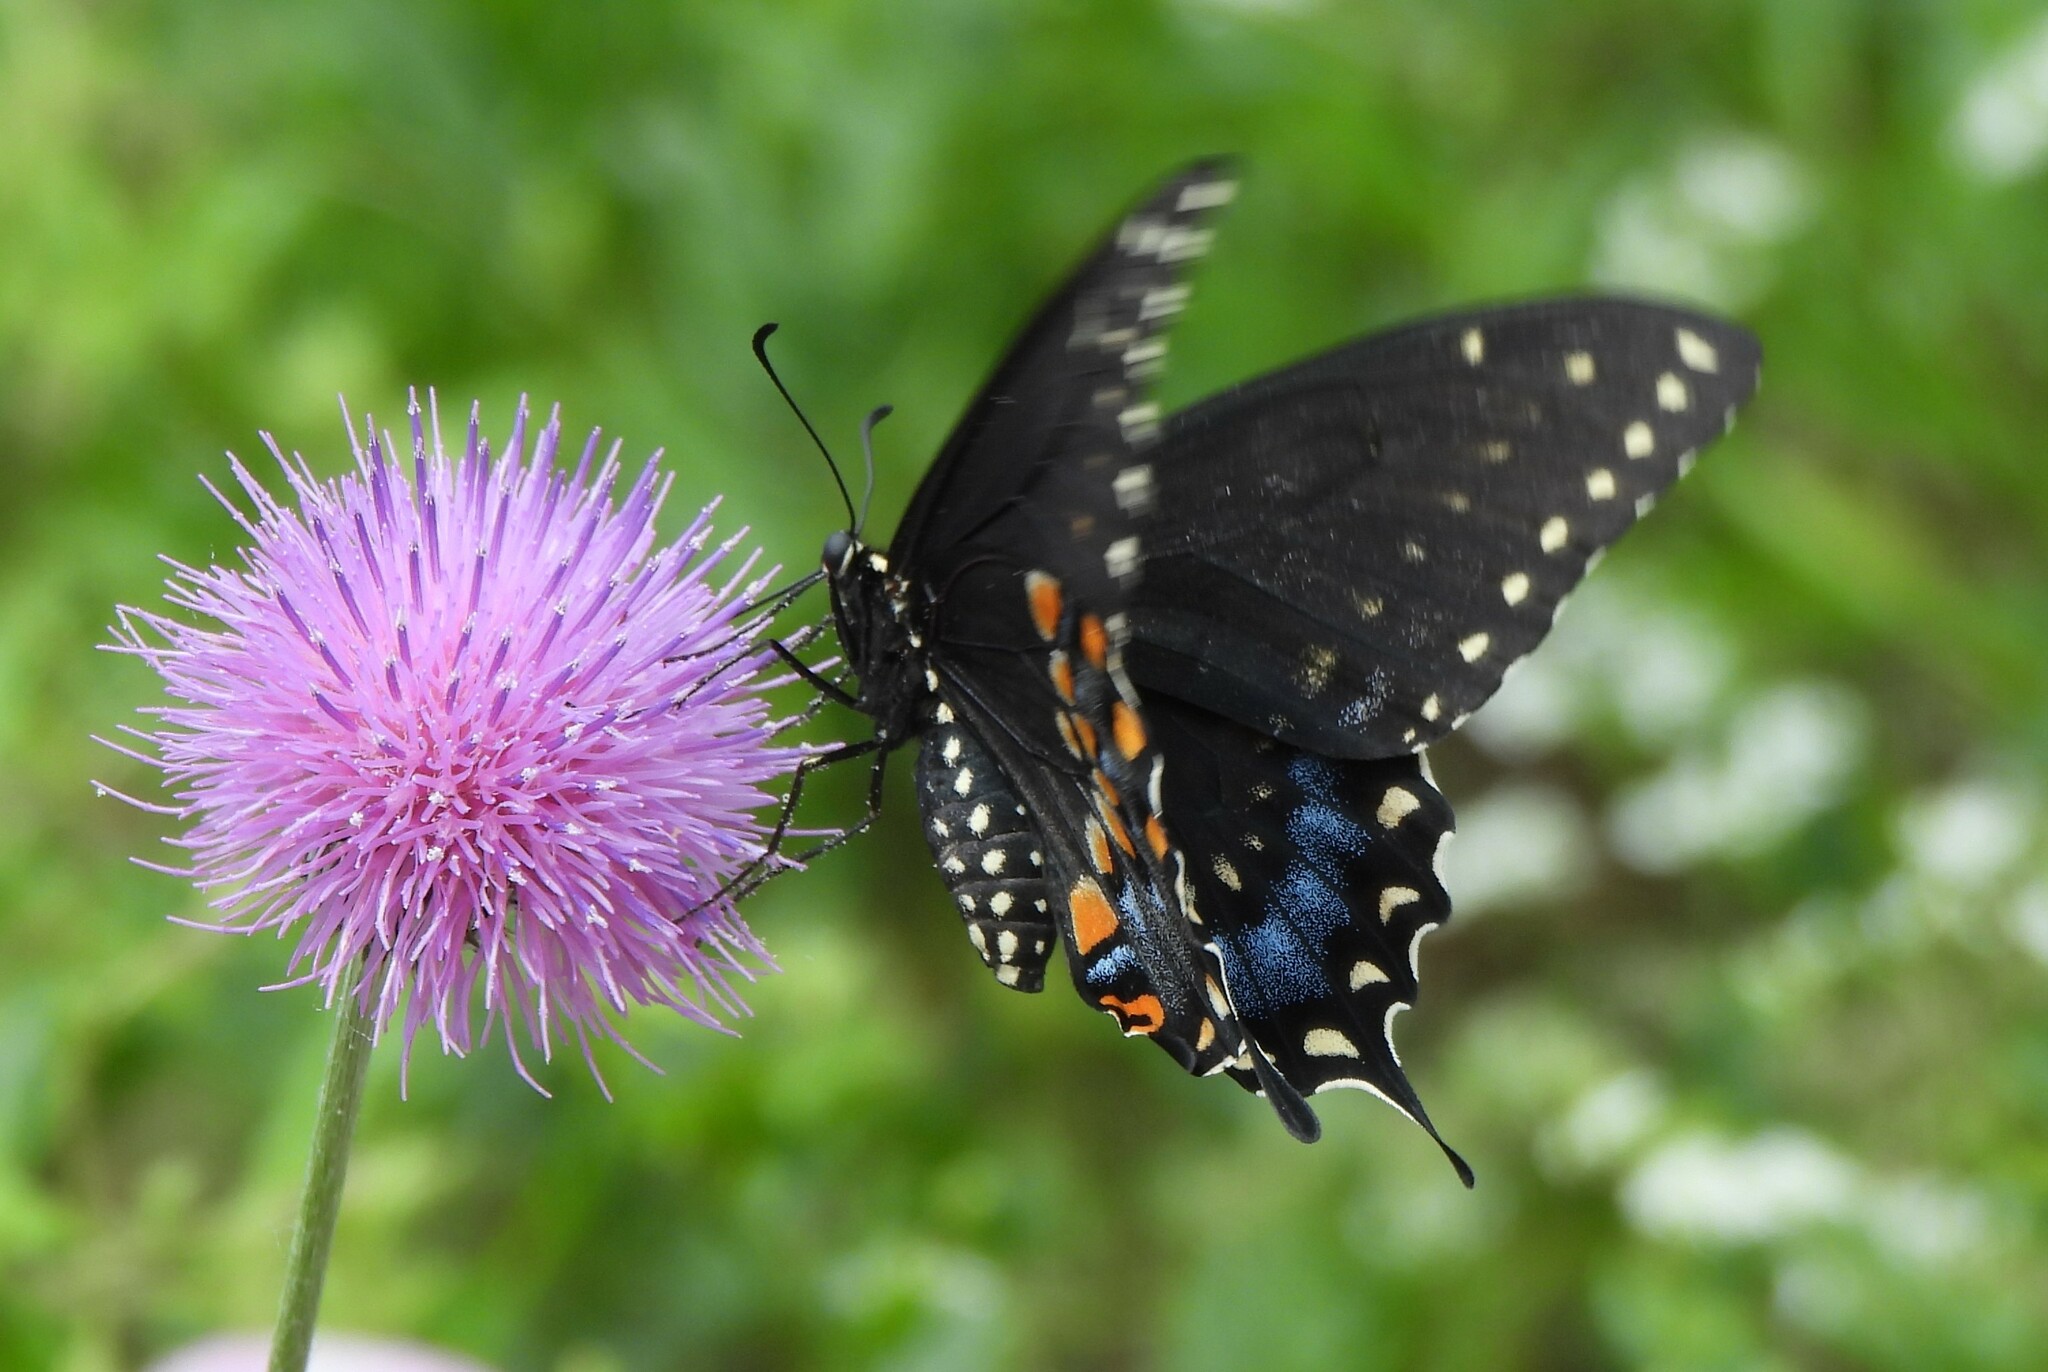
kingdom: Animalia
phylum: Arthropoda
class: Insecta
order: Lepidoptera
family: Papilionidae
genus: Papilio
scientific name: Papilio polyxenes
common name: Black swallowtail
